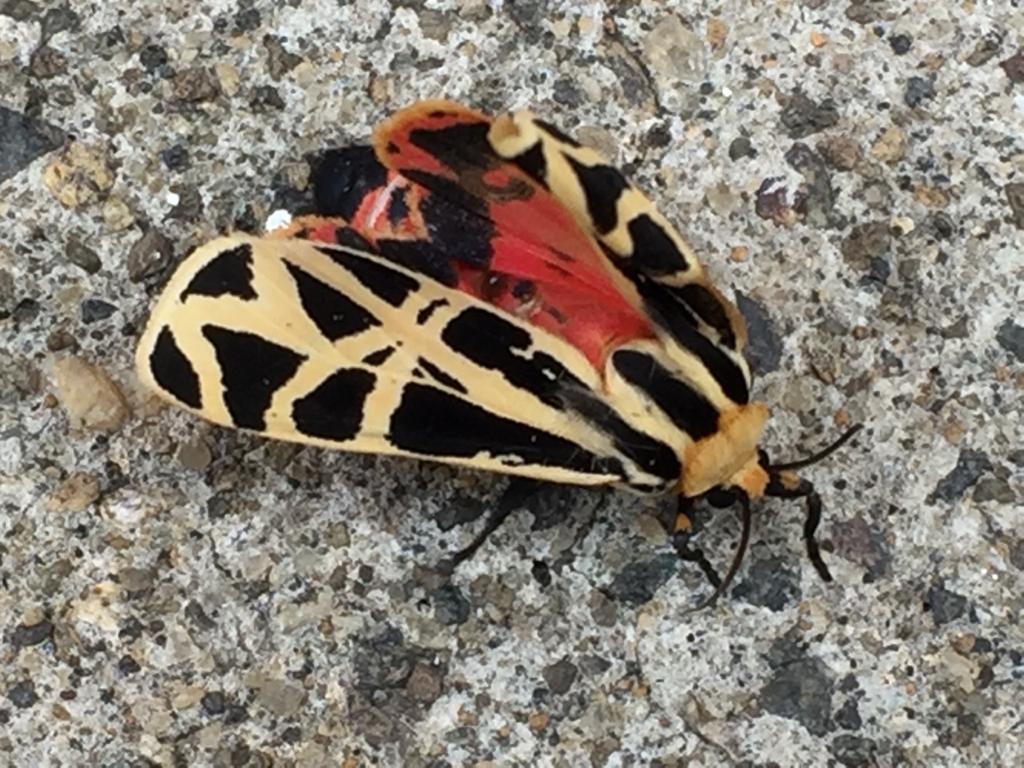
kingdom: Animalia
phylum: Arthropoda
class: Insecta
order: Lepidoptera
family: Erebidae
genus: Apantesis
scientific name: Apantesis
